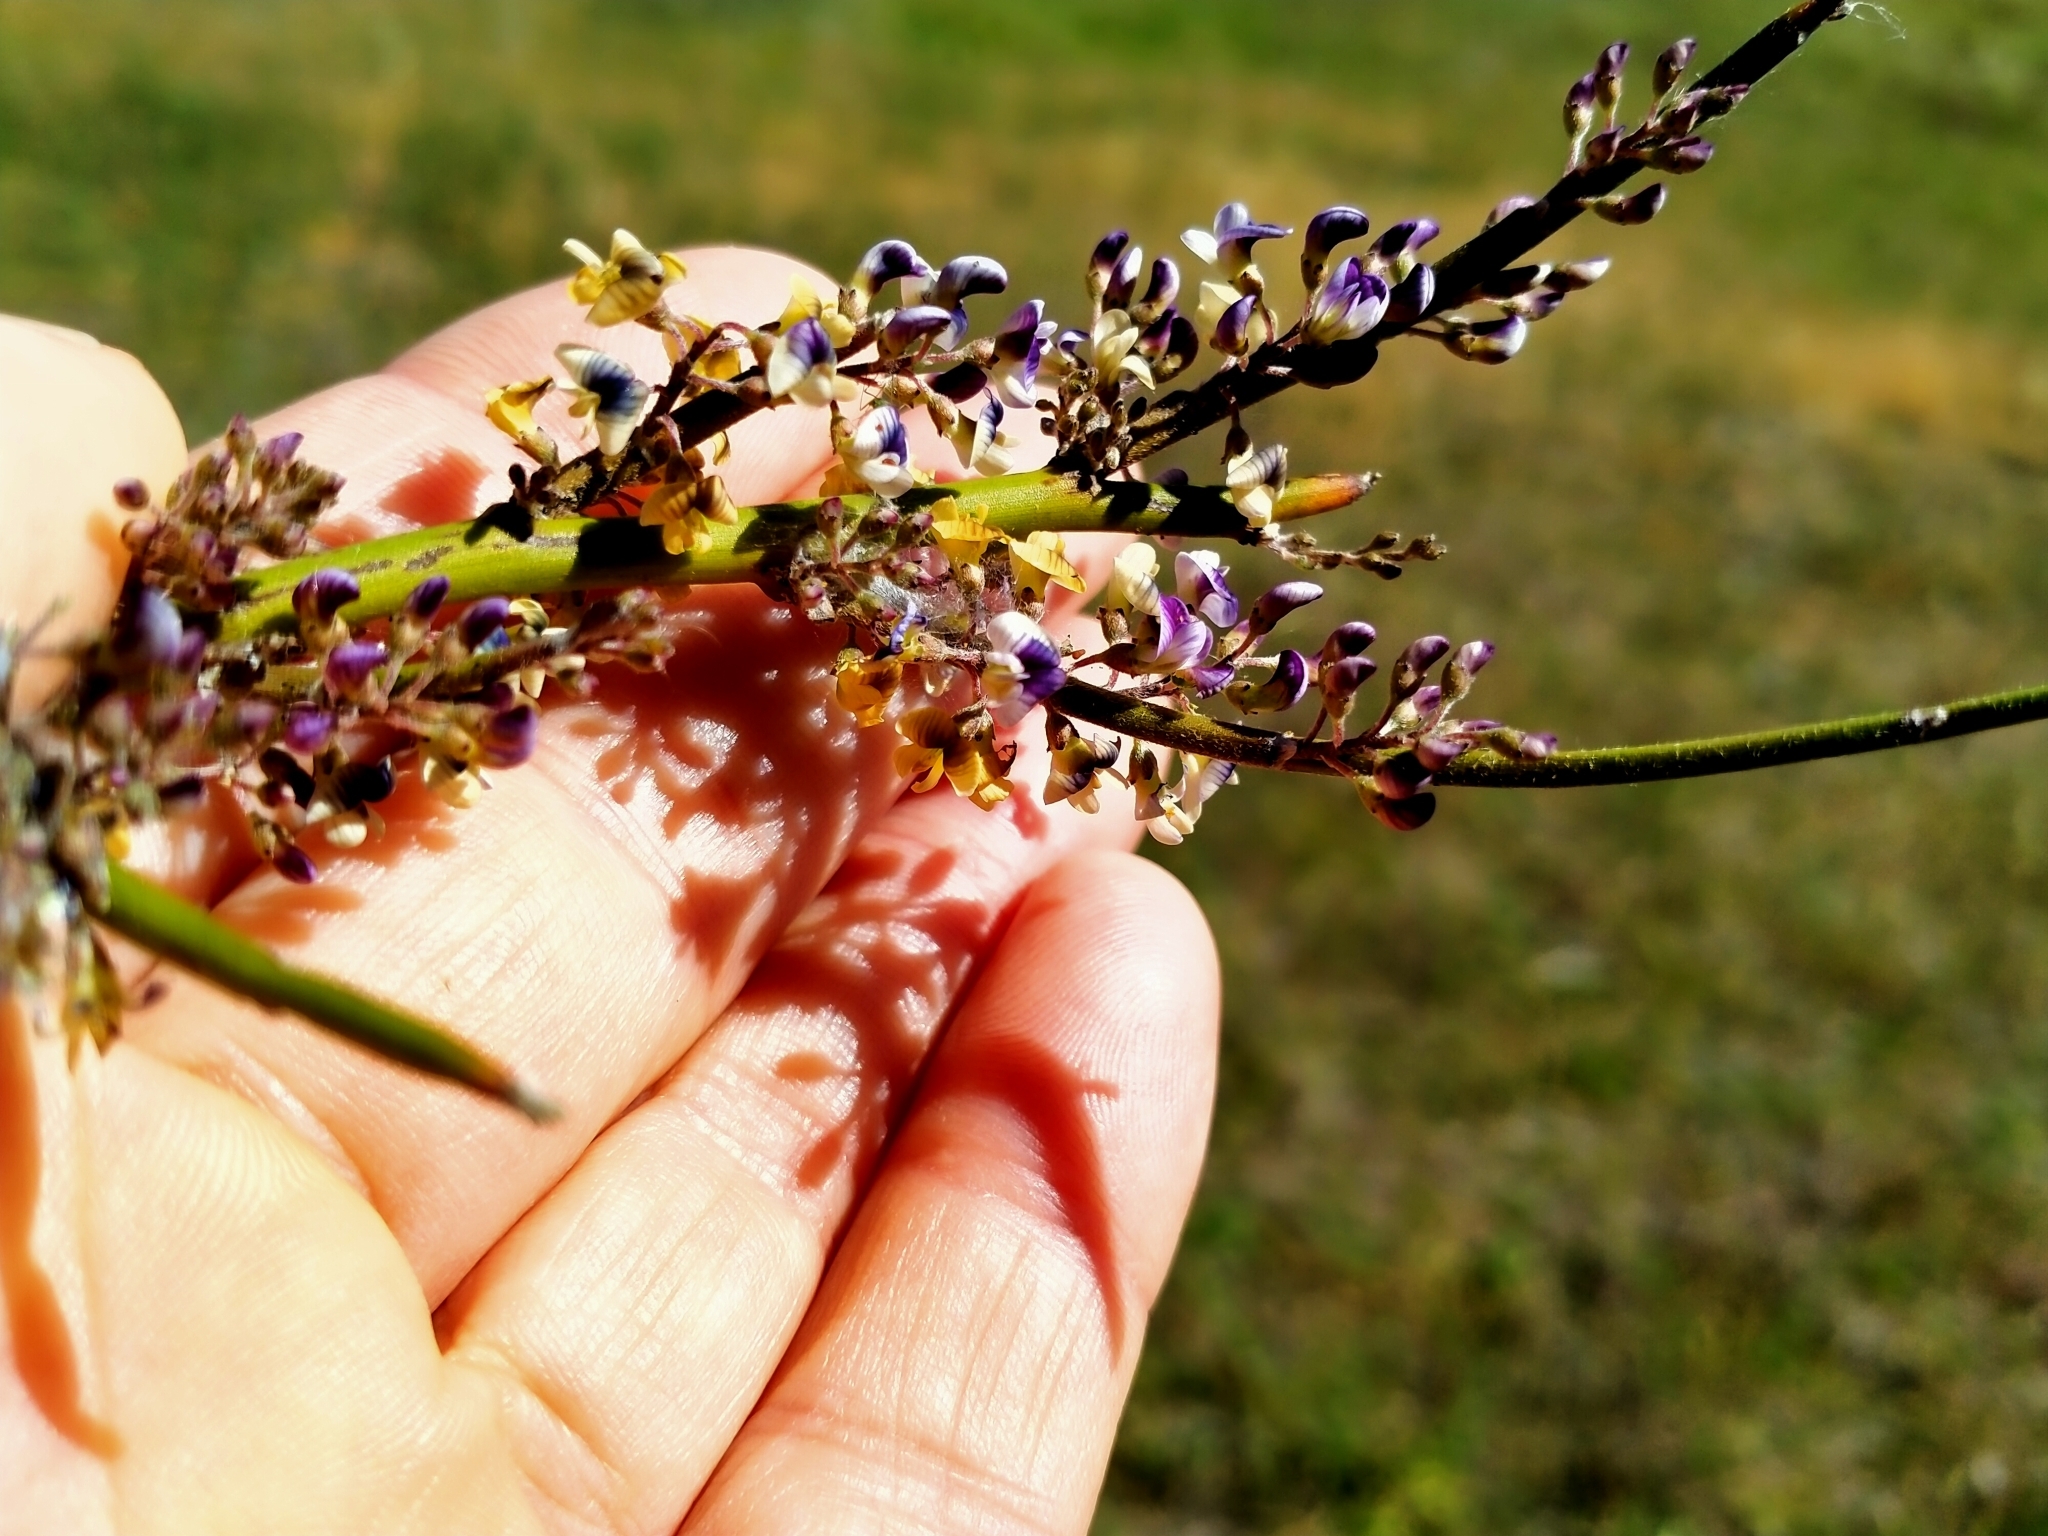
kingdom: Plantae
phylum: Tracheophyta
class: Magnoliopsida
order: Fabales
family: Fabaceae
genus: Carmichaelia
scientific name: Carmichaelia petriei
